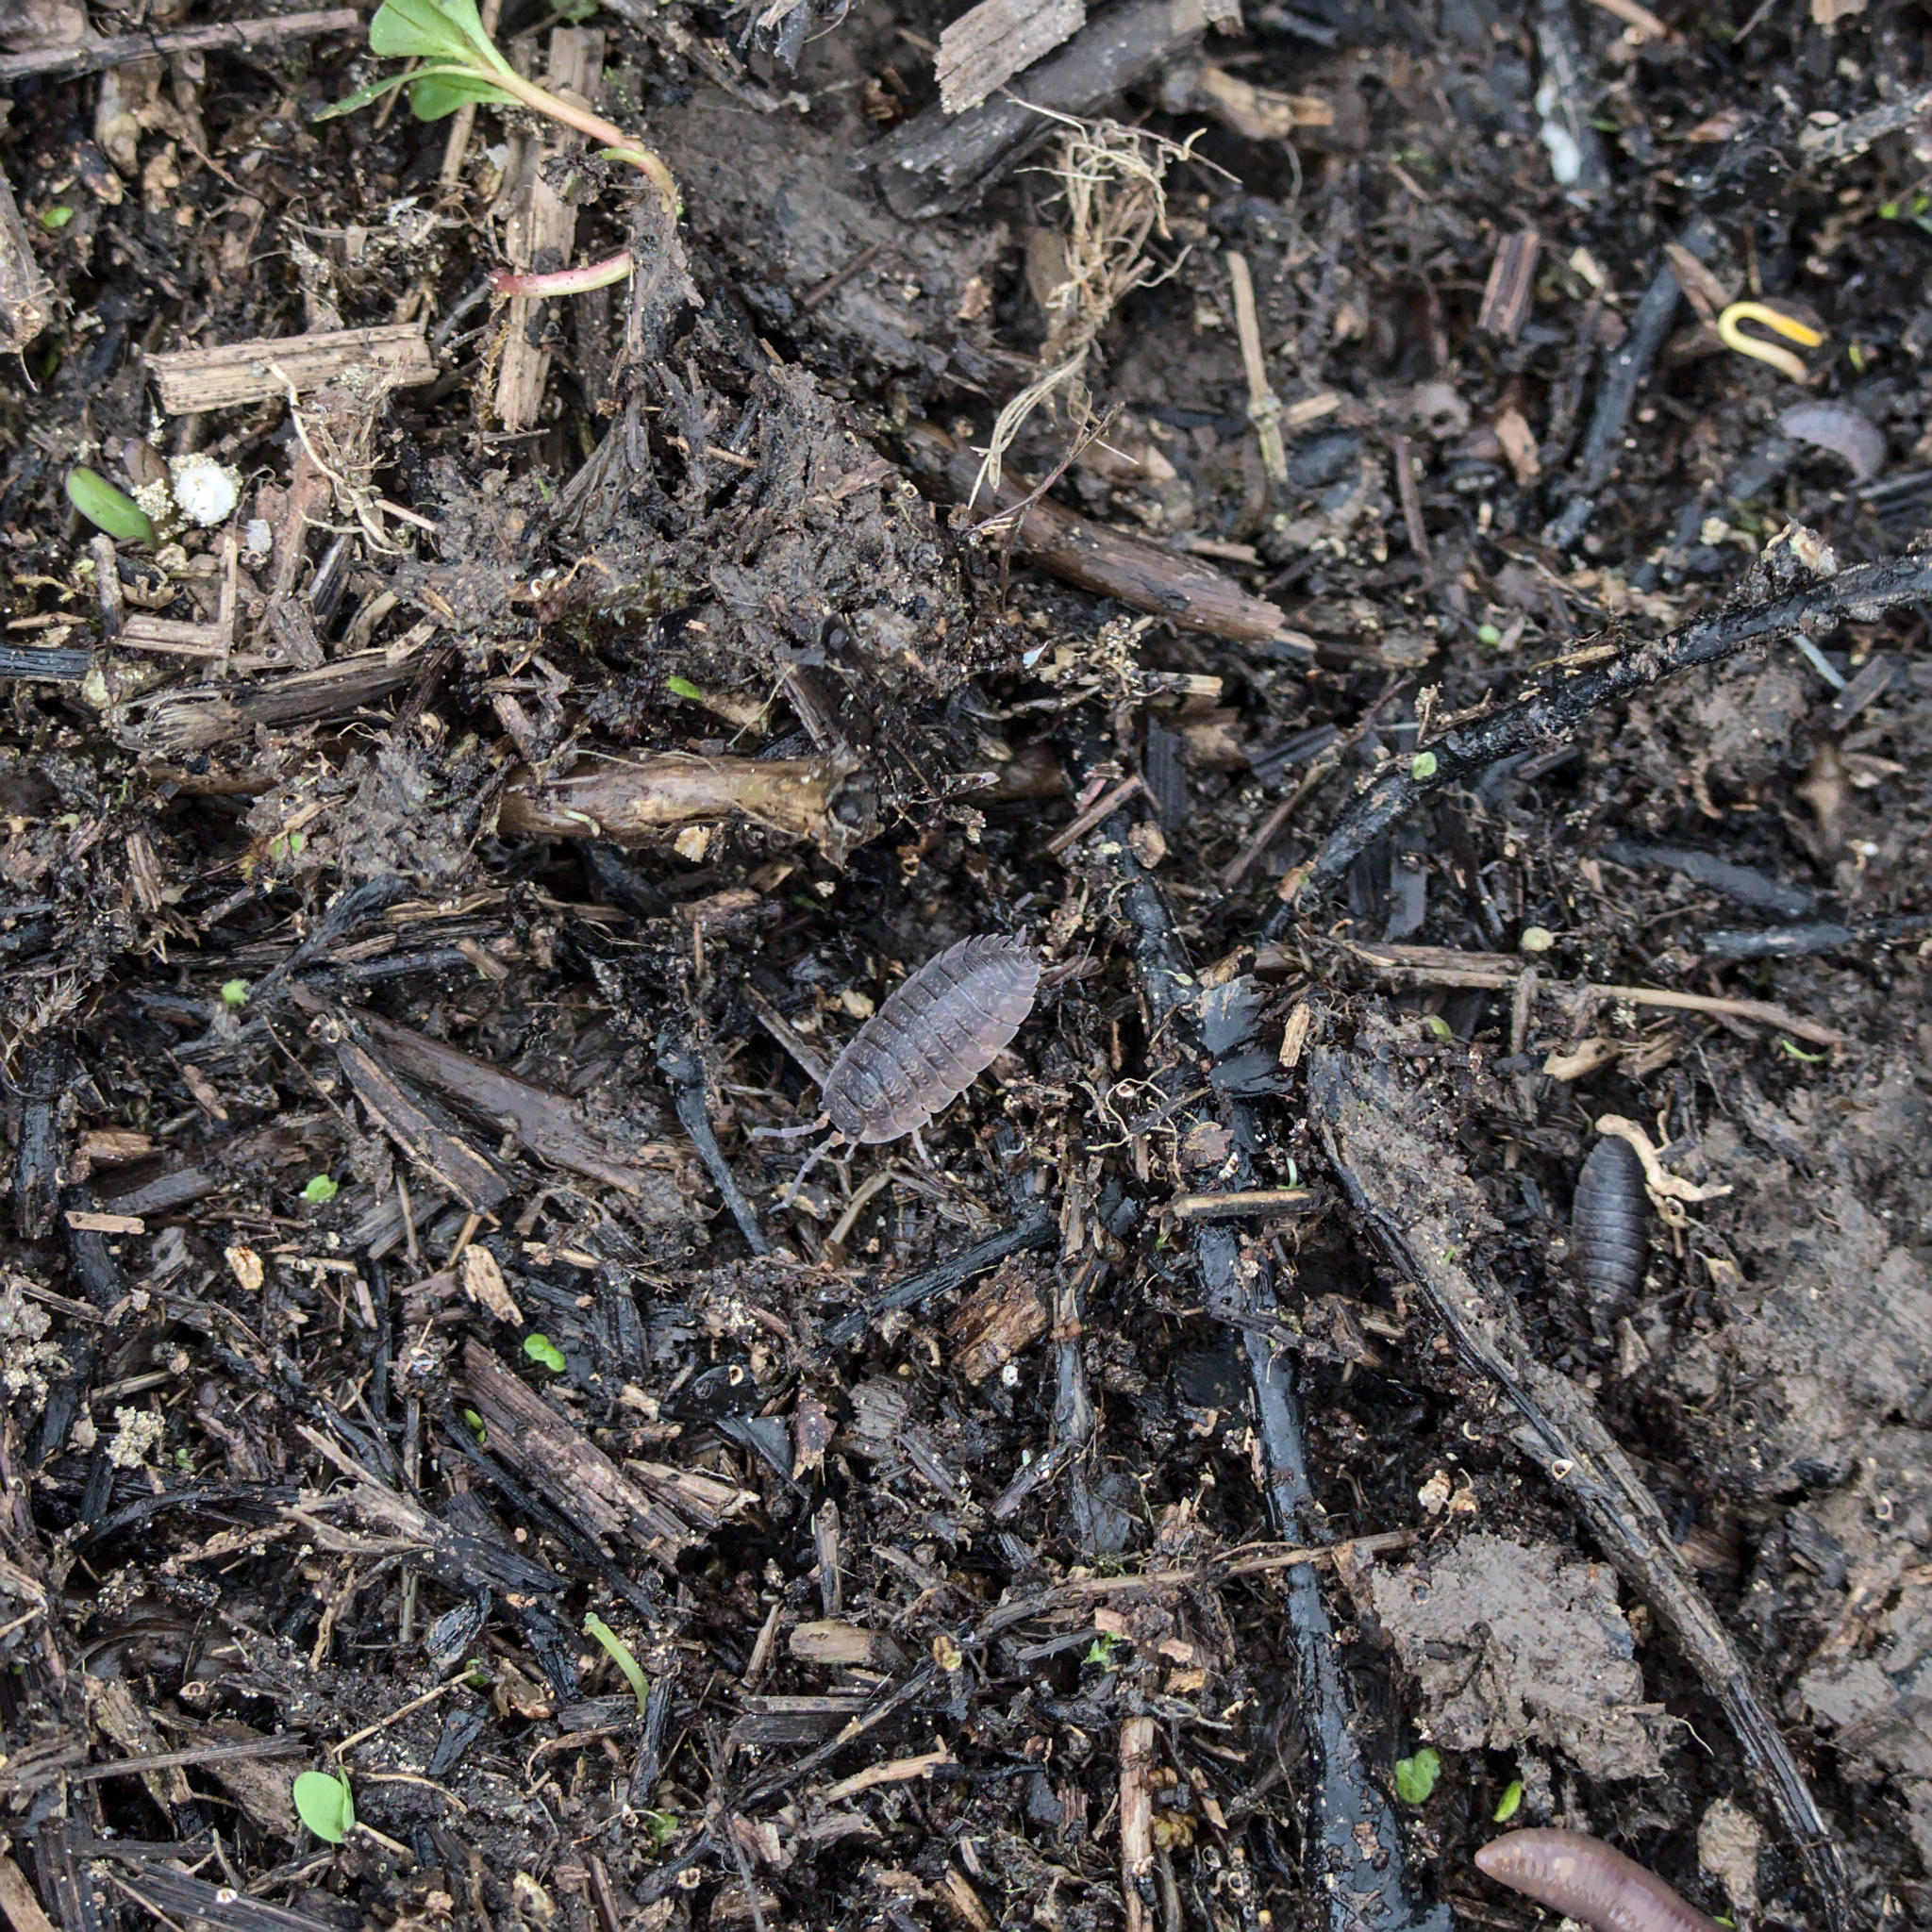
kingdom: Animalia
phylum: Arthropoda
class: Malacostraca
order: Isopoda
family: Porcellionidae
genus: Porcellio
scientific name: Porcellio scaber
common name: Common rough woodlouse
